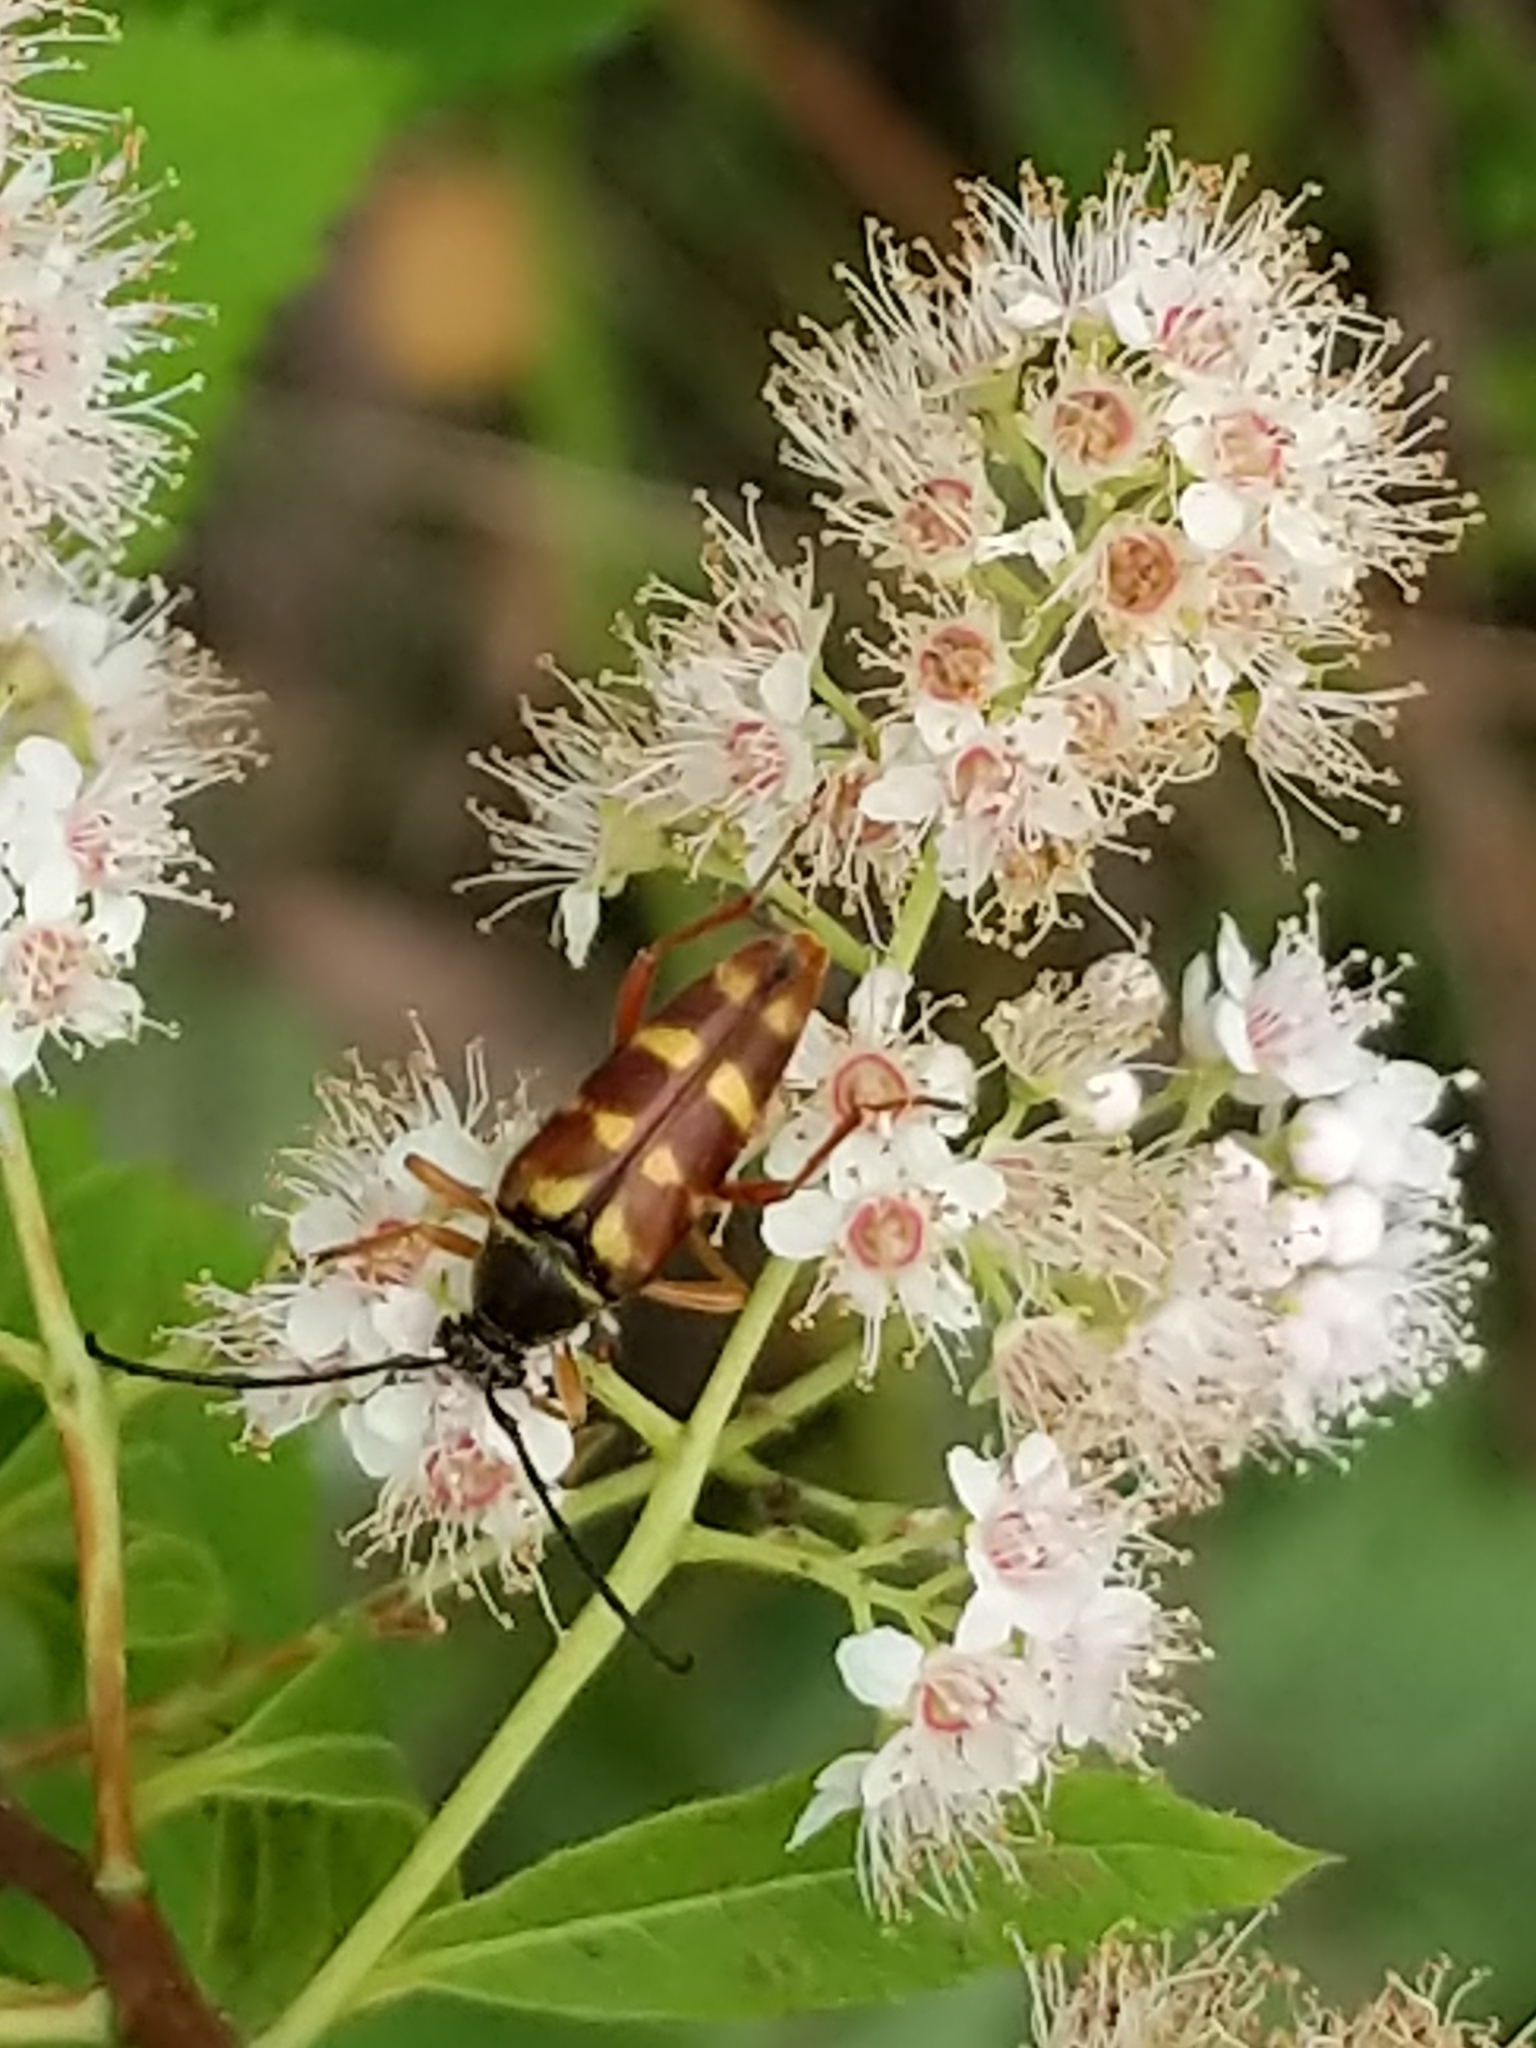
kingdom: Animalia
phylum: Arthropoda
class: Insecta
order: Coleoptera
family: Cerambycidae
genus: Typocerus
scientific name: Typocerus velutinus
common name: Banded longhorn beetle
